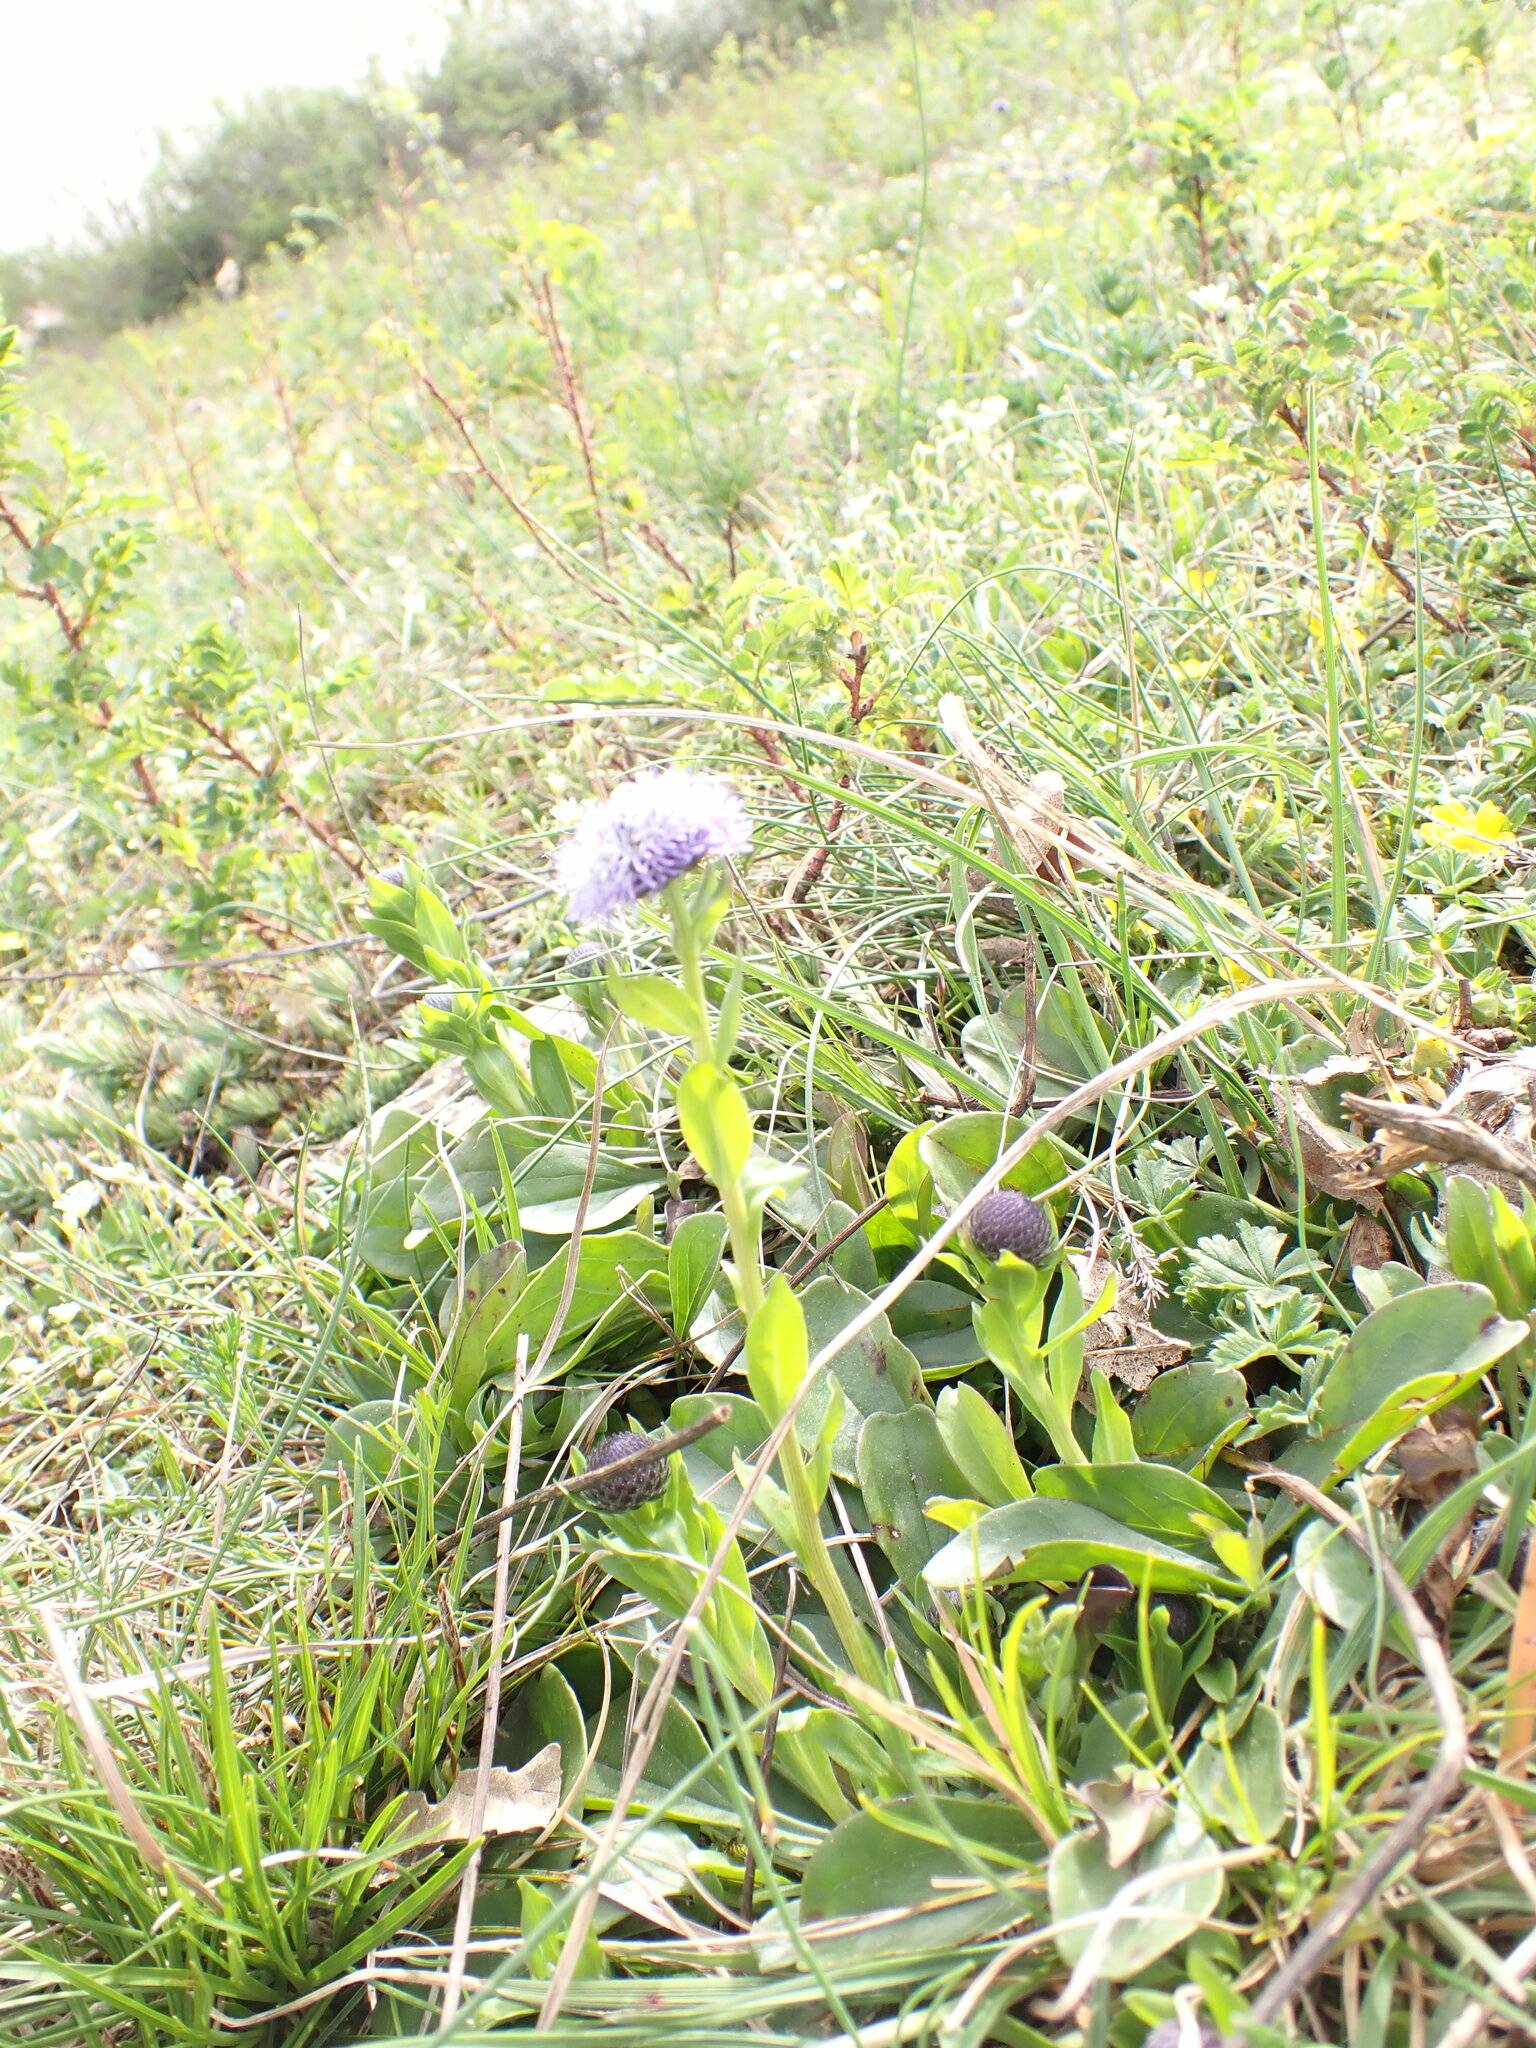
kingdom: Plantae
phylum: Tracheophyta
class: Magnoliopsida
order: Lamiales
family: Plantaginaceae
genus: Globularia
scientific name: Globularia bisnagarica
